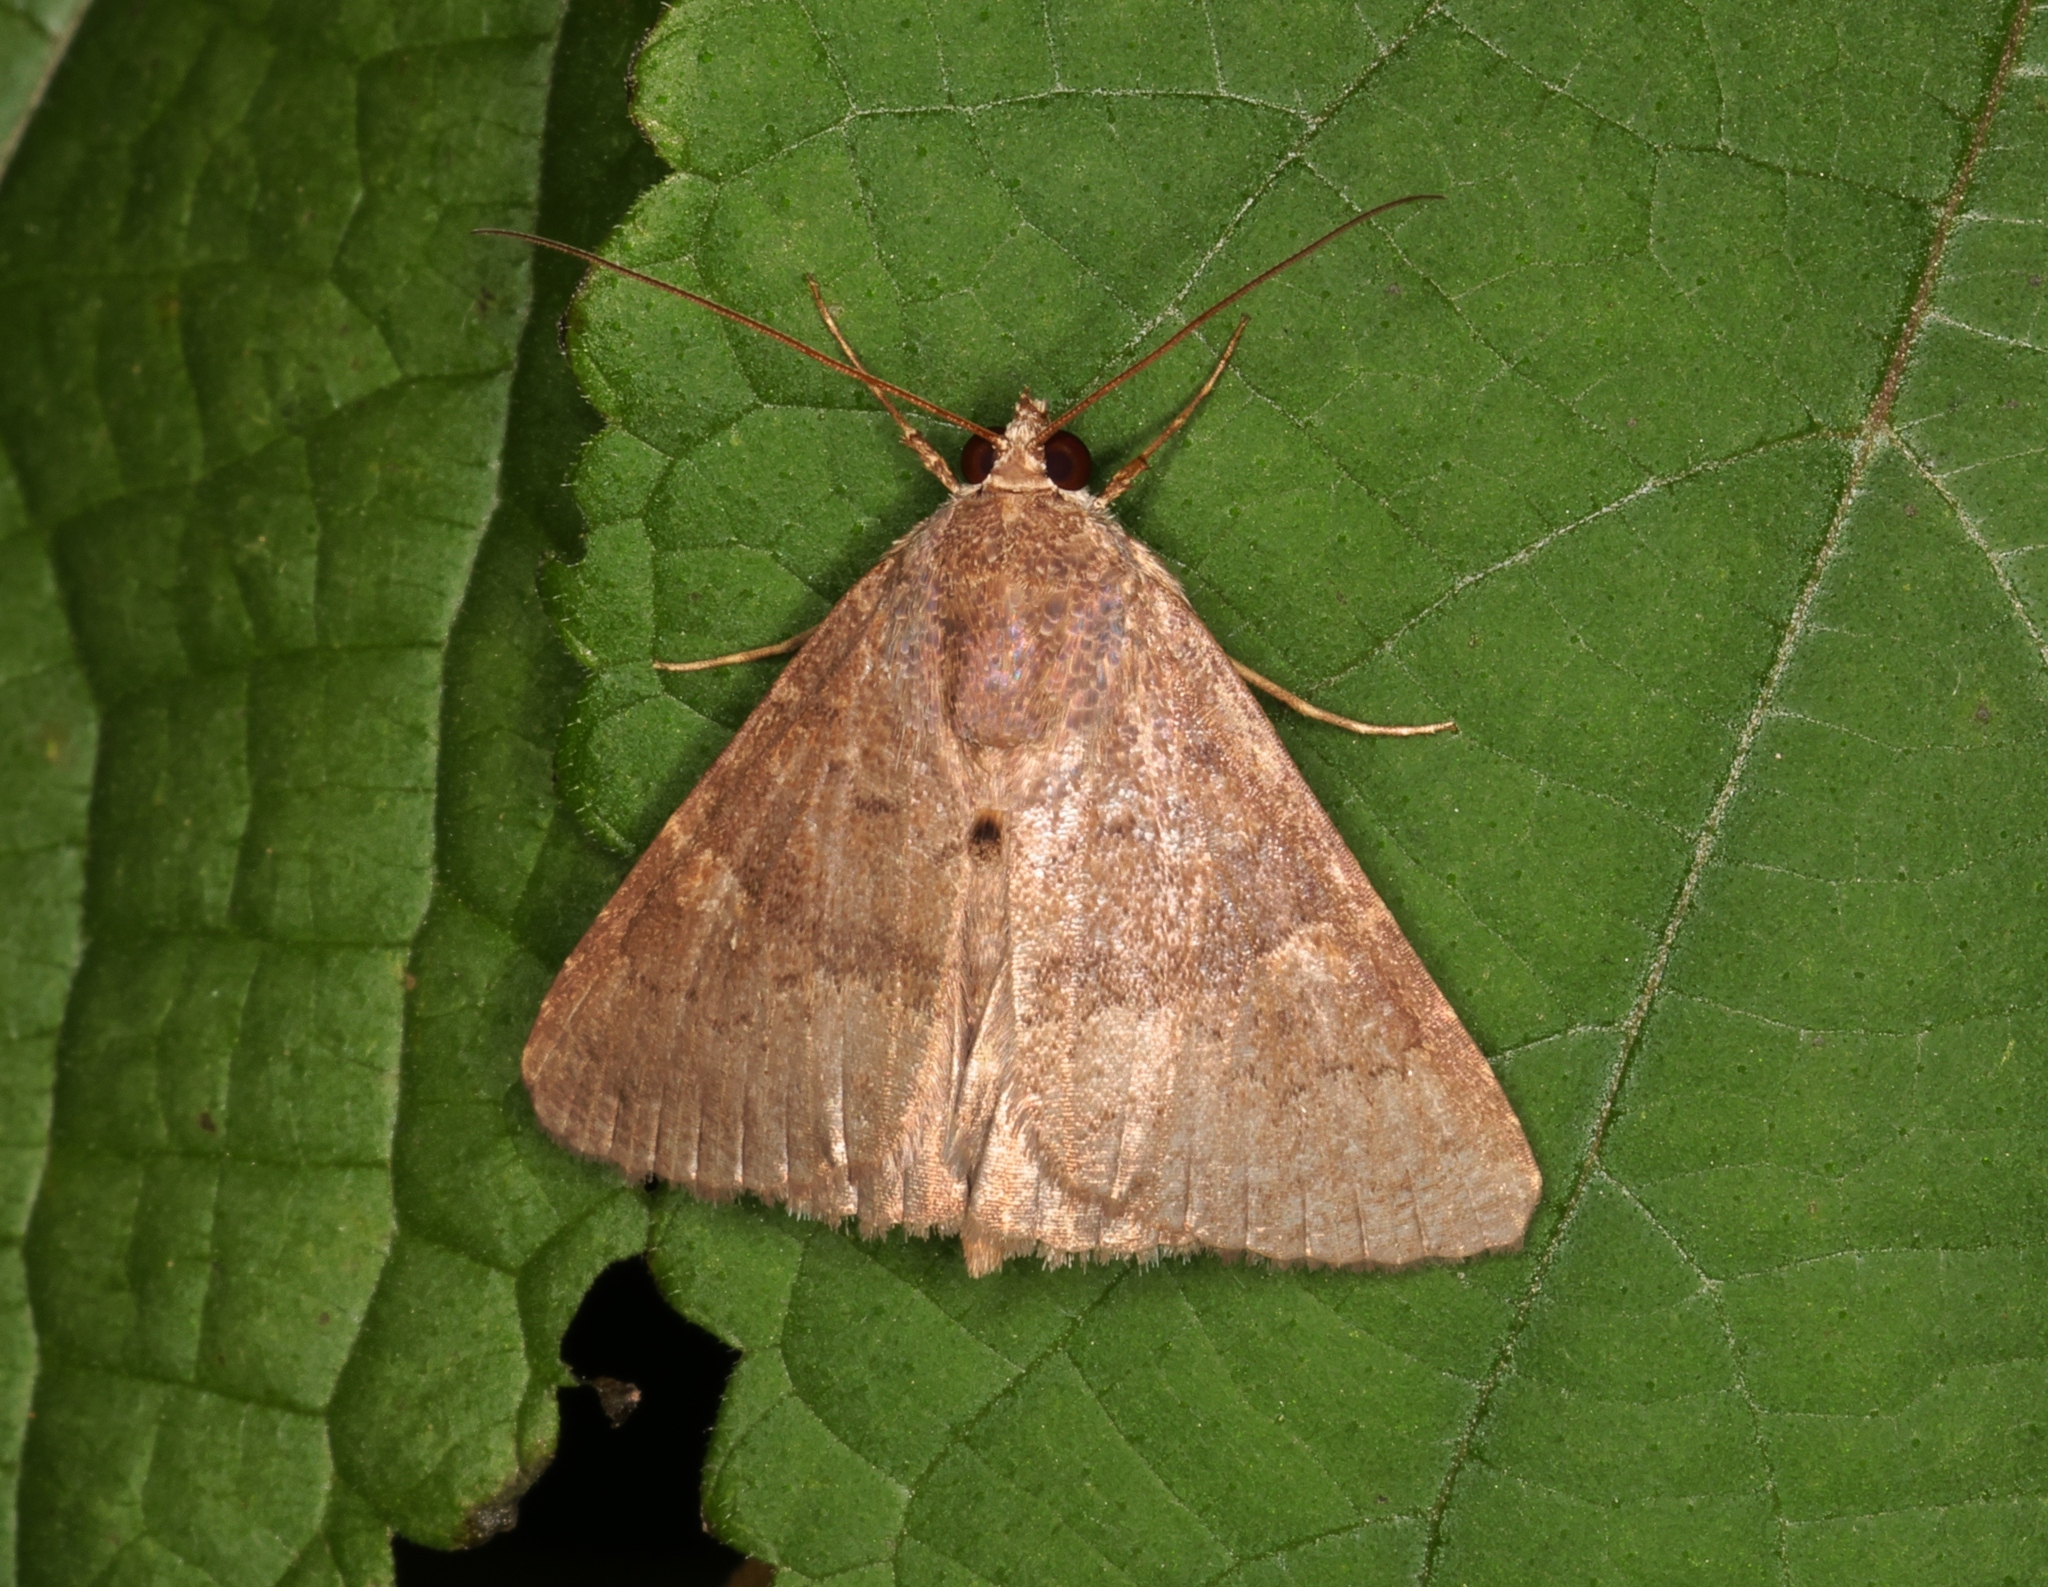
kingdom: Animalia
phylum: Arthropoda
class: Insecta
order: Lepidoptera
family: Noctuidae
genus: Amyna
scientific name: Amyna punctum
